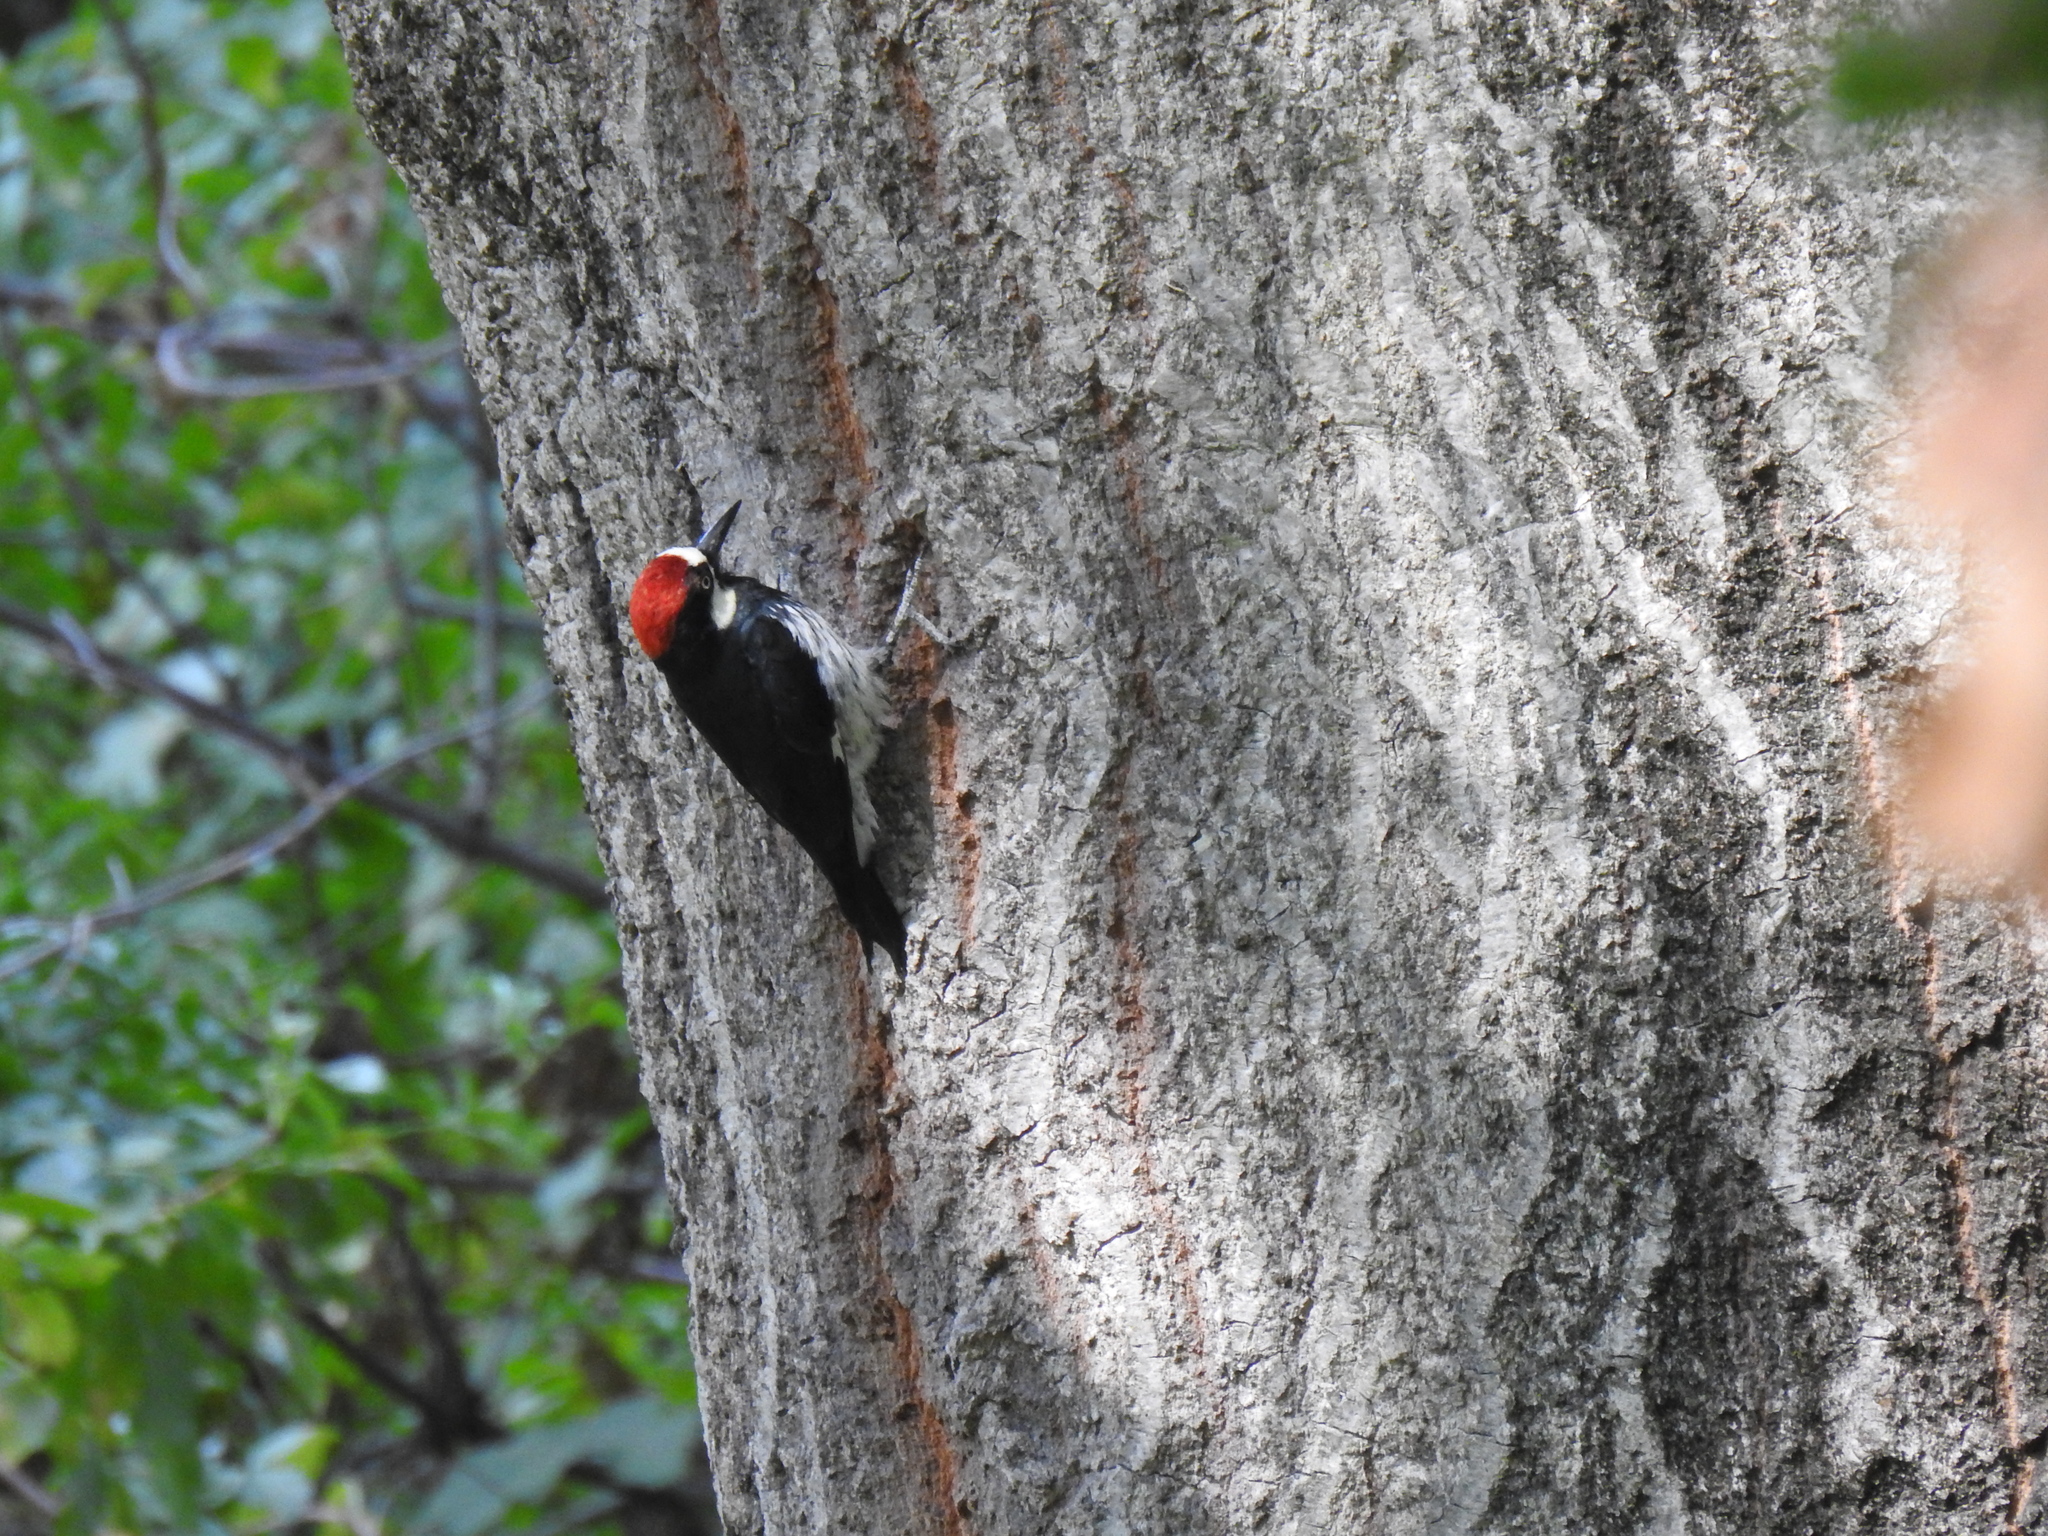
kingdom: Animalia
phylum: Chordata
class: Aves
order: Piciformes
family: Picidae
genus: Melanerpes
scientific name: Melanerpes formicivorus
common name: Acorn woodpecker
